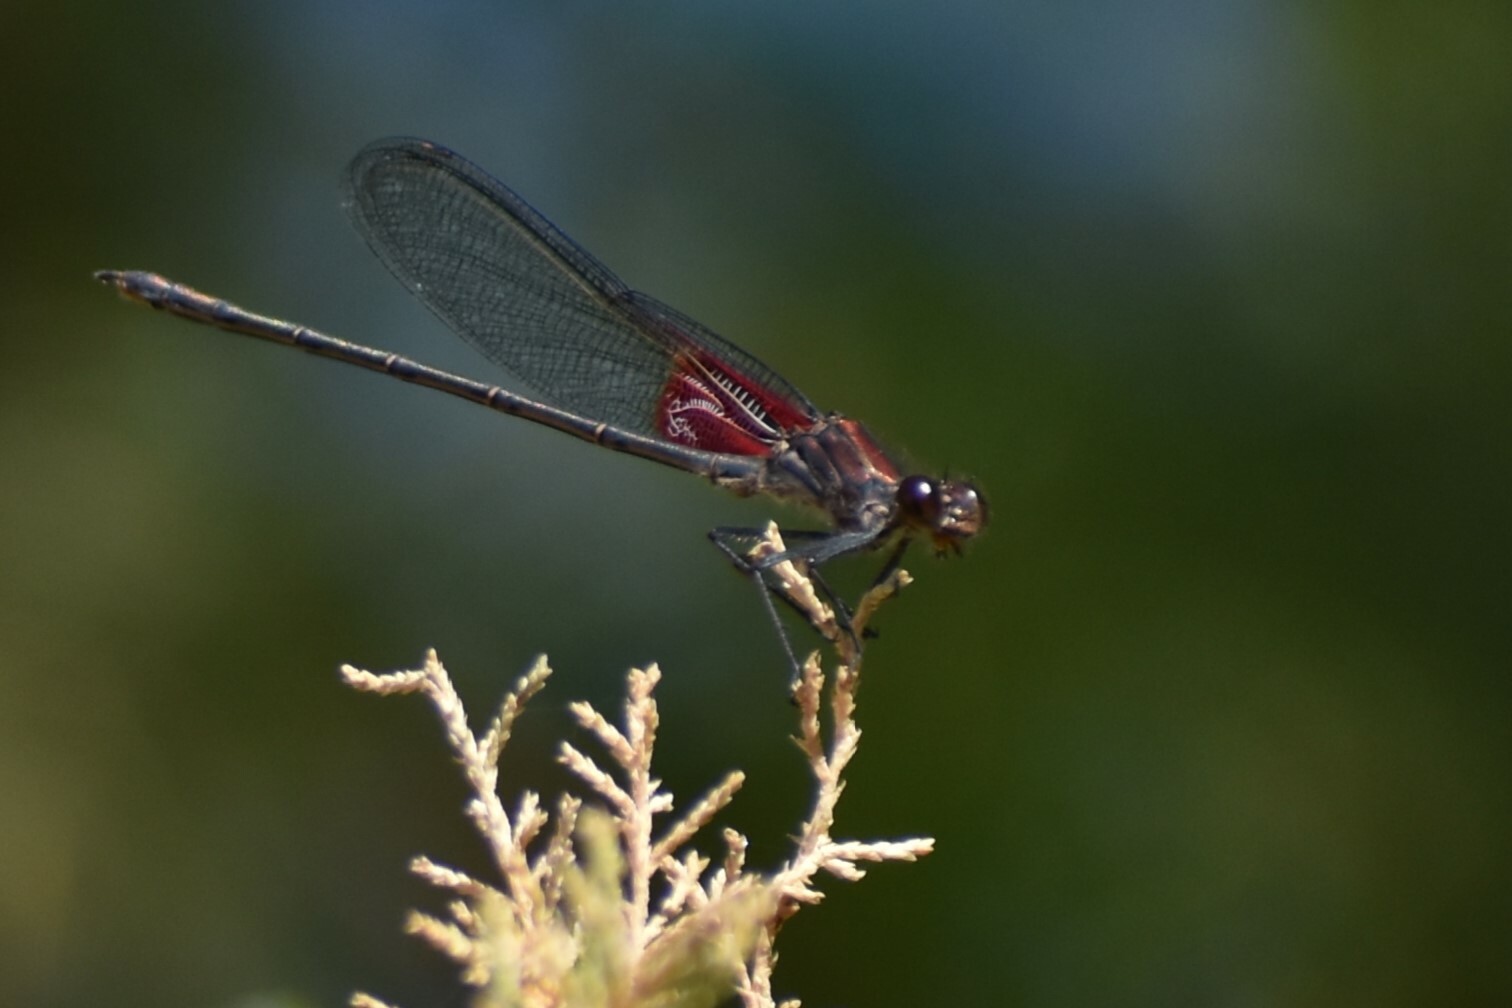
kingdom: Animalia
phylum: Arthropoda
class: Insecta
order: Odonata
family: Calopterygidae
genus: Hetaerina
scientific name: Hetaerina americana
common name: American rubyspot
